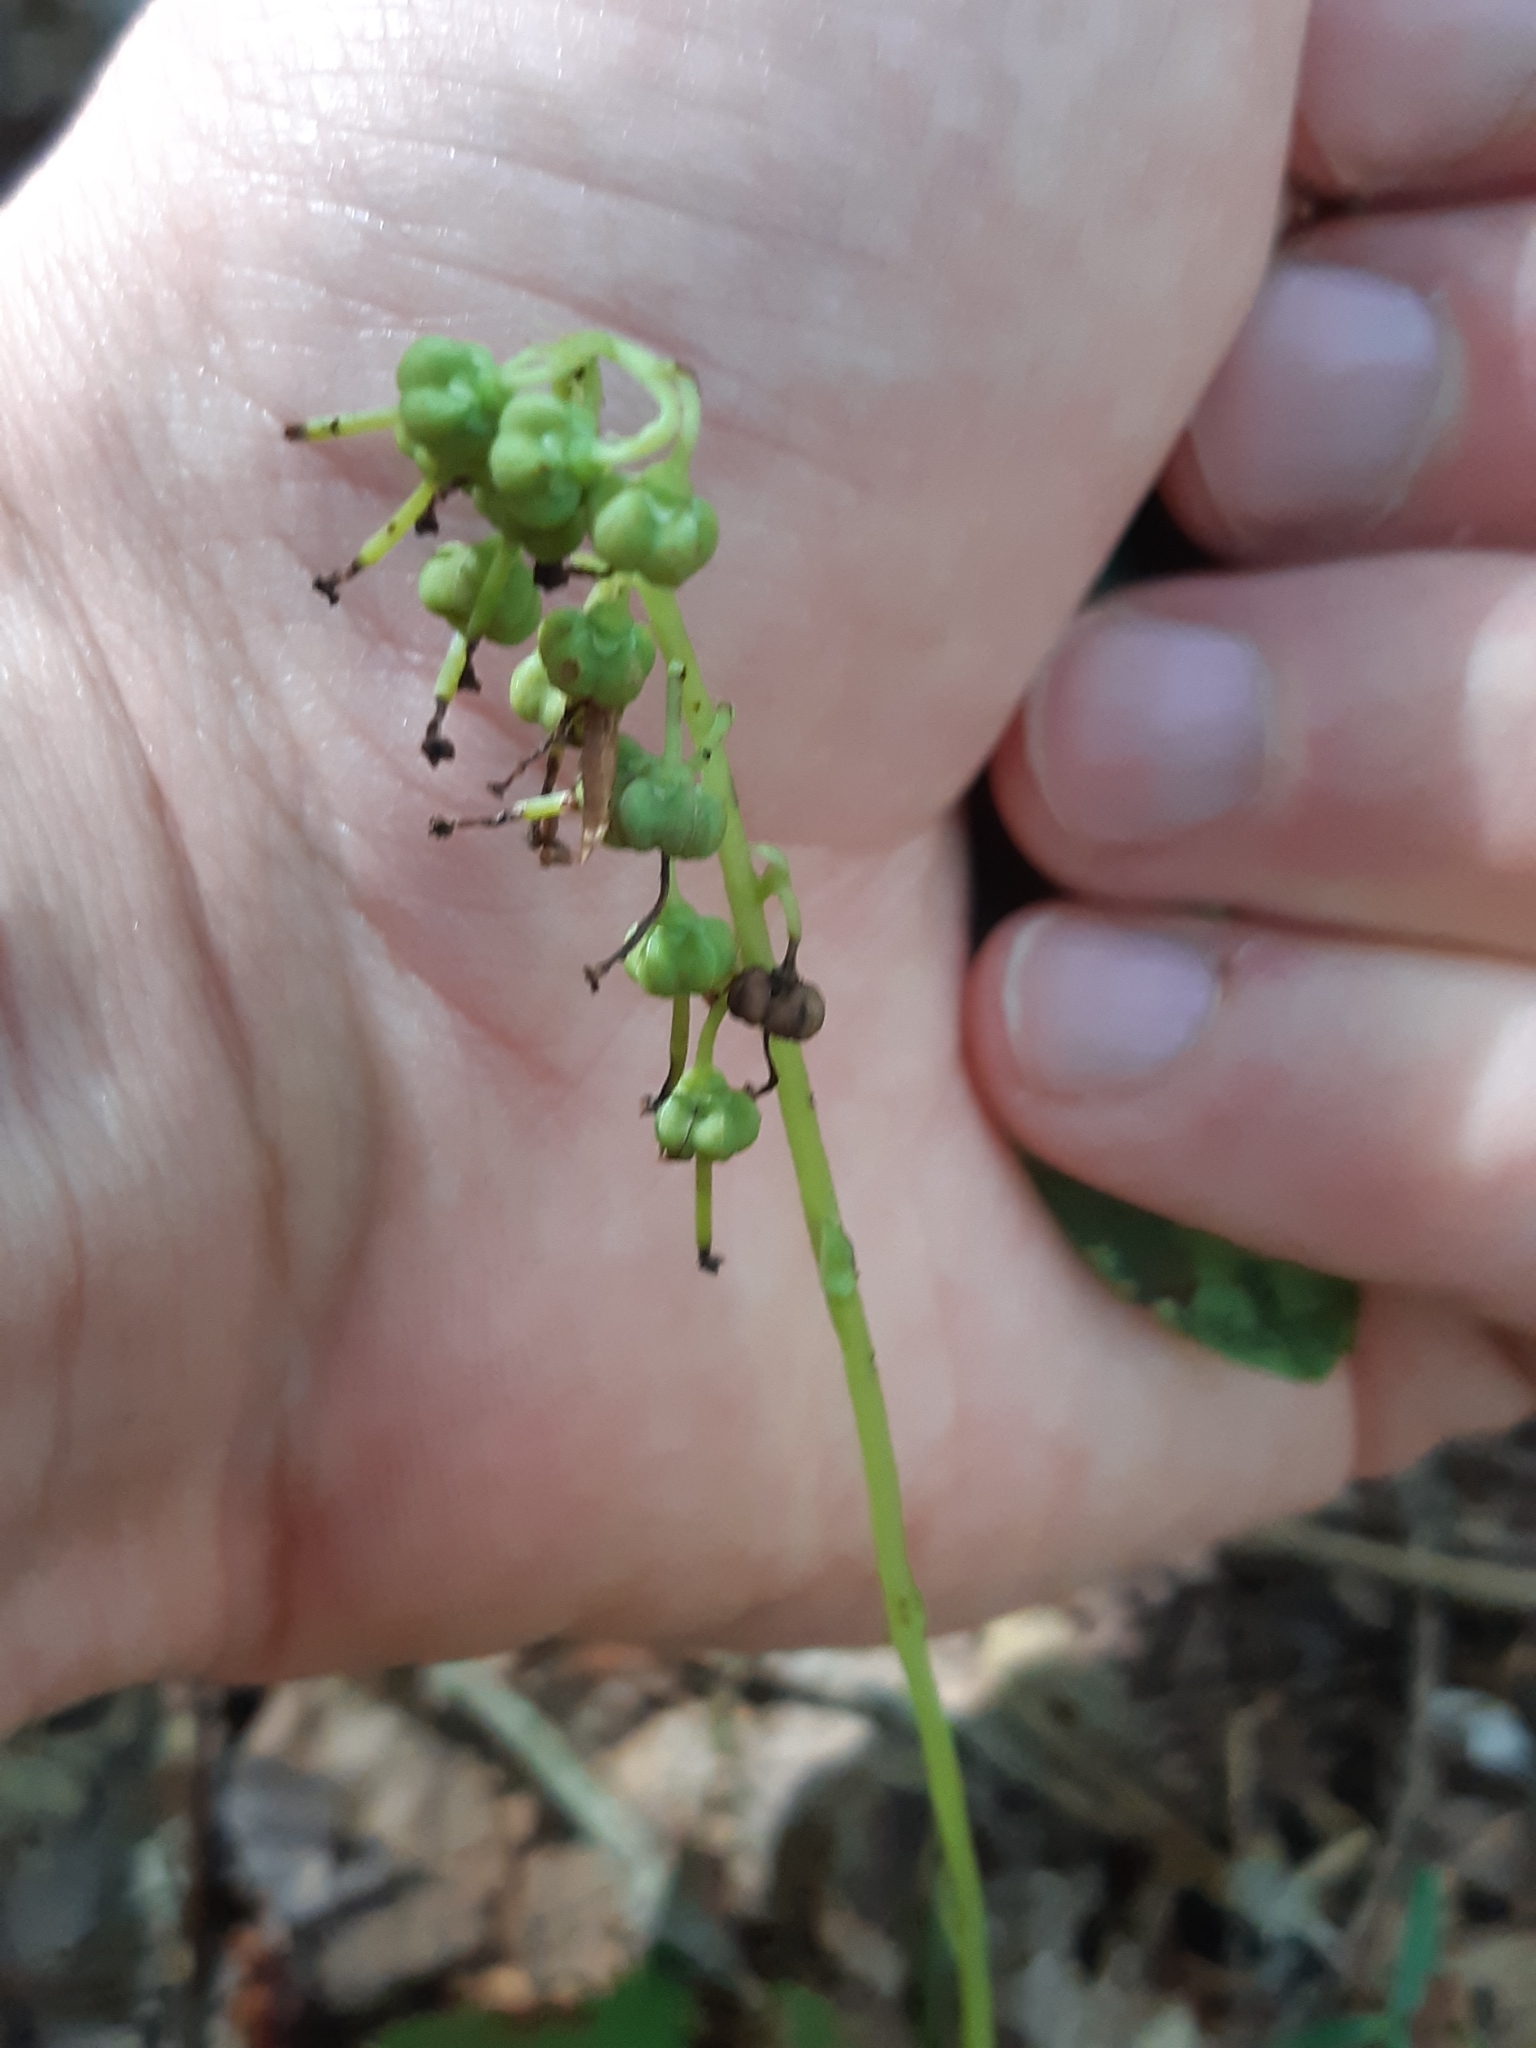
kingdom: Plantae
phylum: Tracheophyta
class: Magnoliopsida
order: Ericales
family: Ericaceae
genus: Orthilia
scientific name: Orthilia secunda
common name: One-sided orthilia
